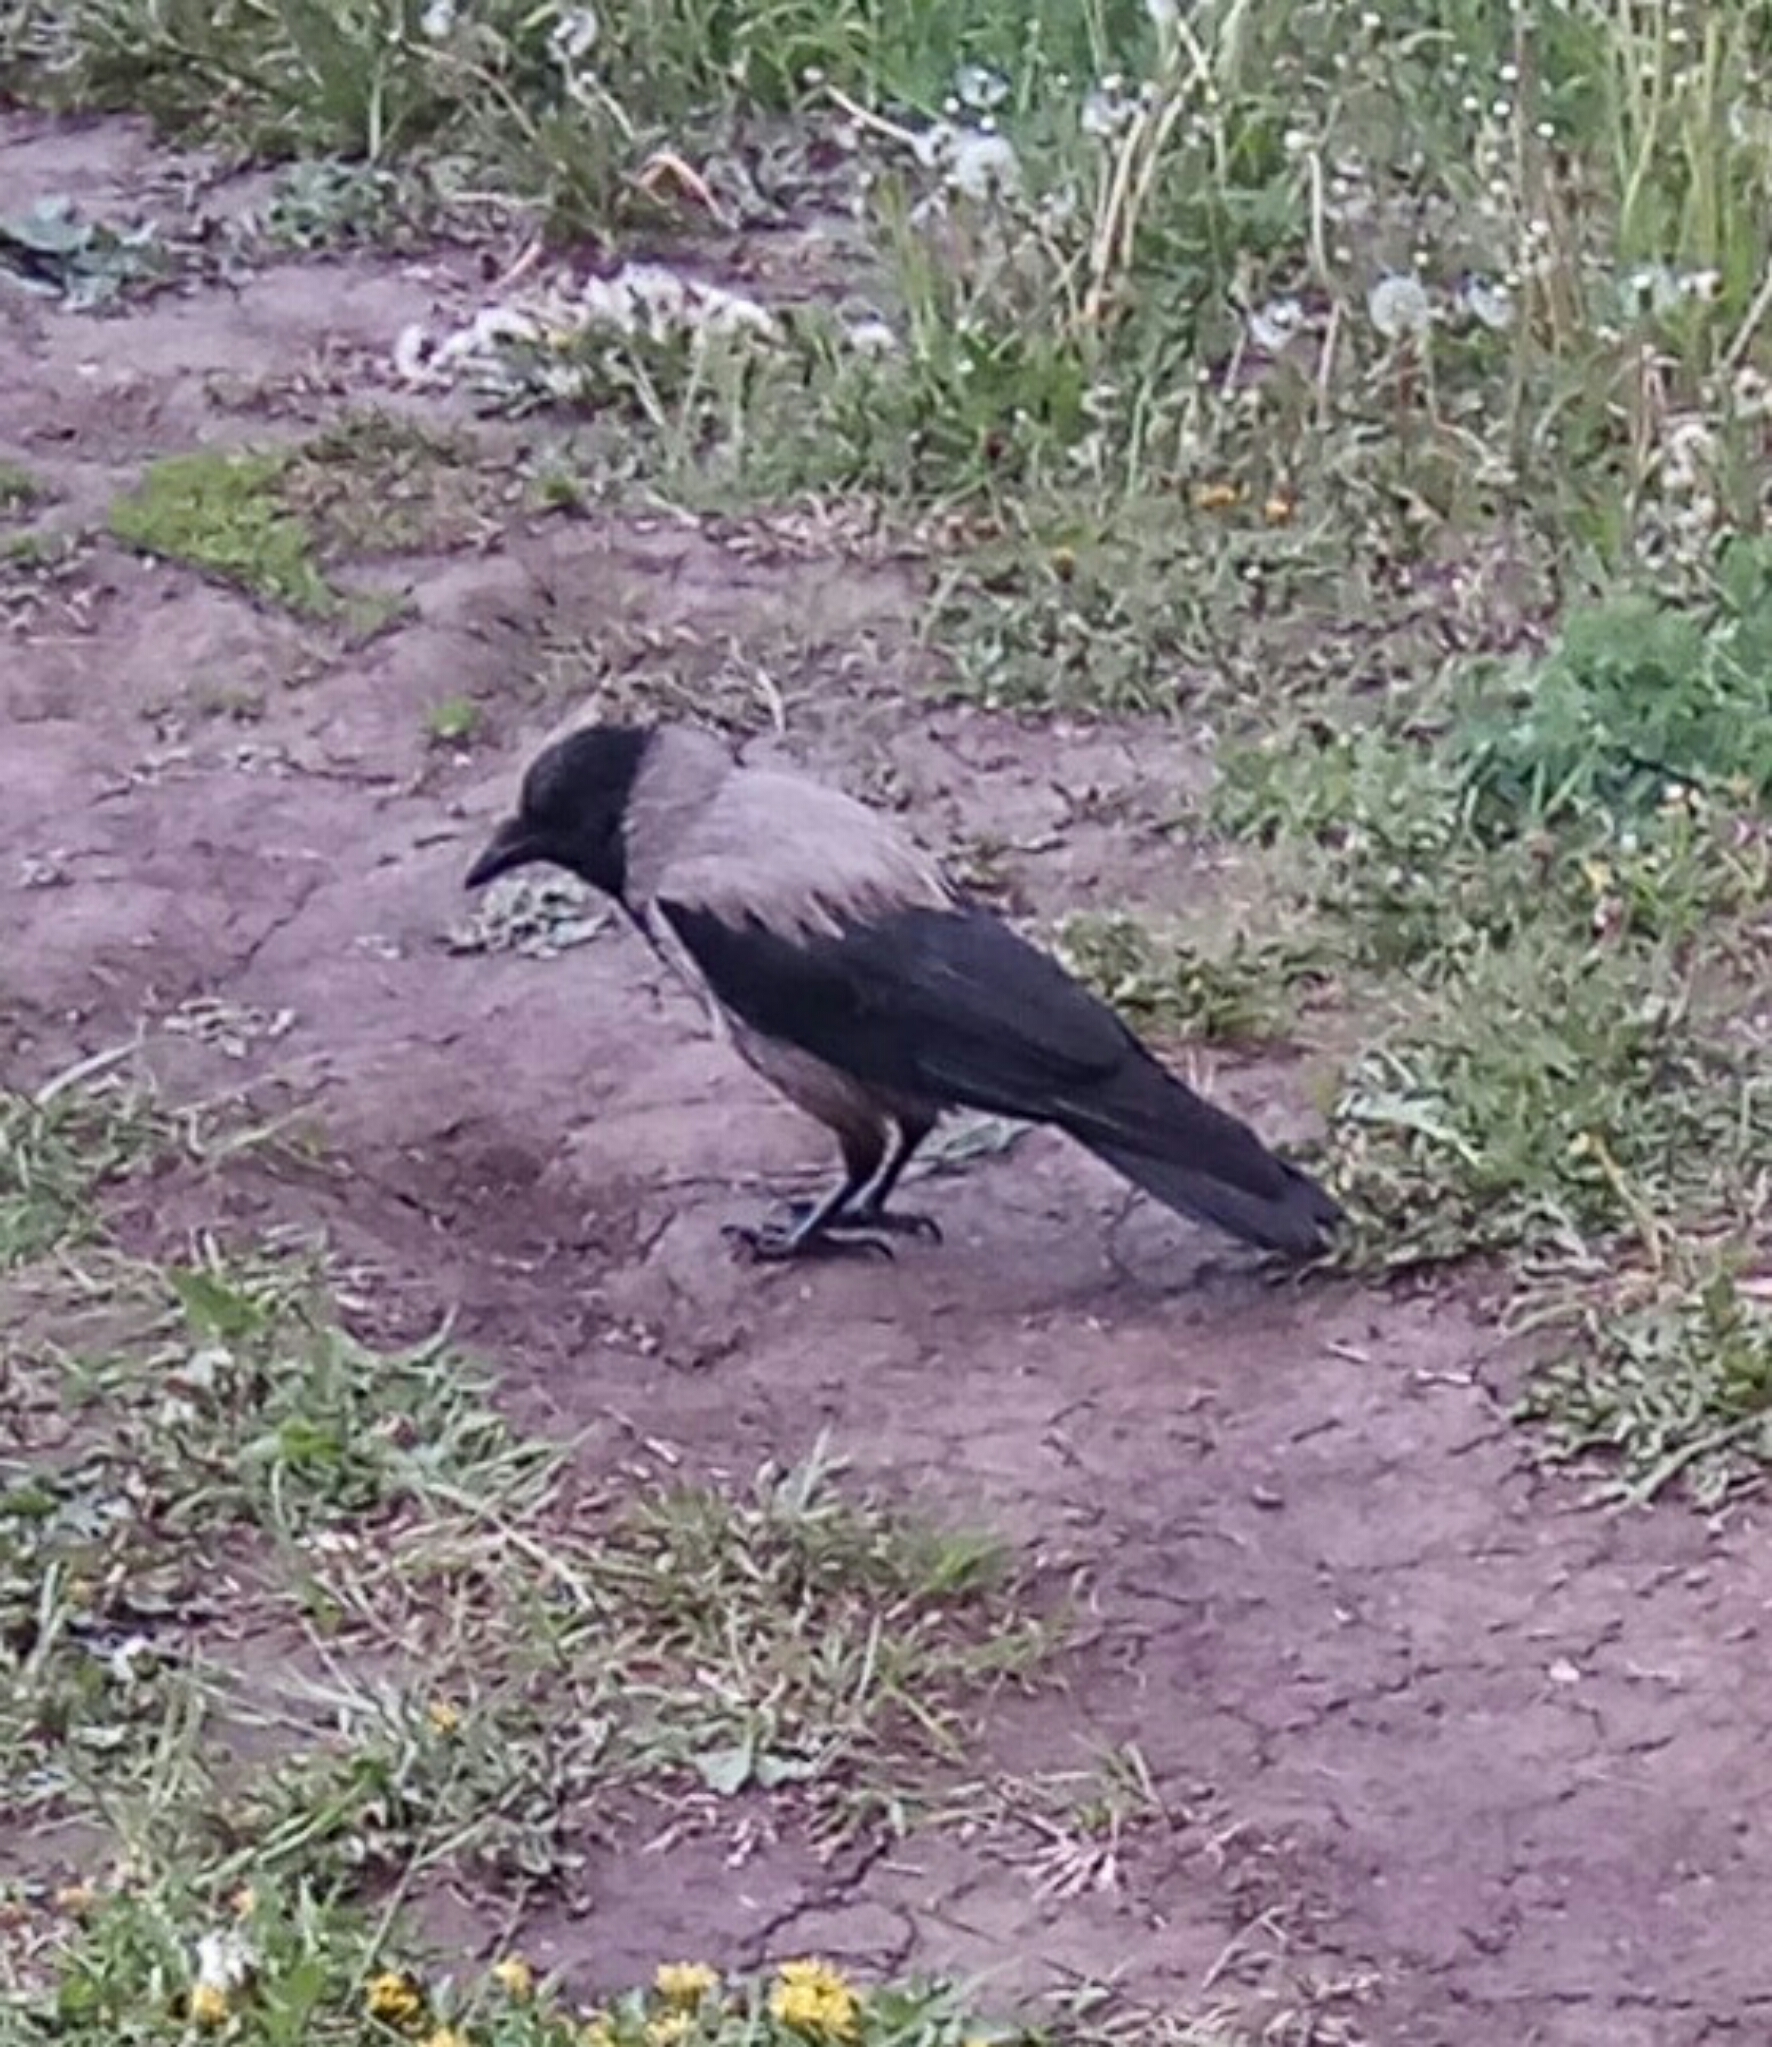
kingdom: Animalia
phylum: Chordata
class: Aves
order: Passeriformes
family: Corvidae
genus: Corvus
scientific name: Corvus cornix
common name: Hooded crow
